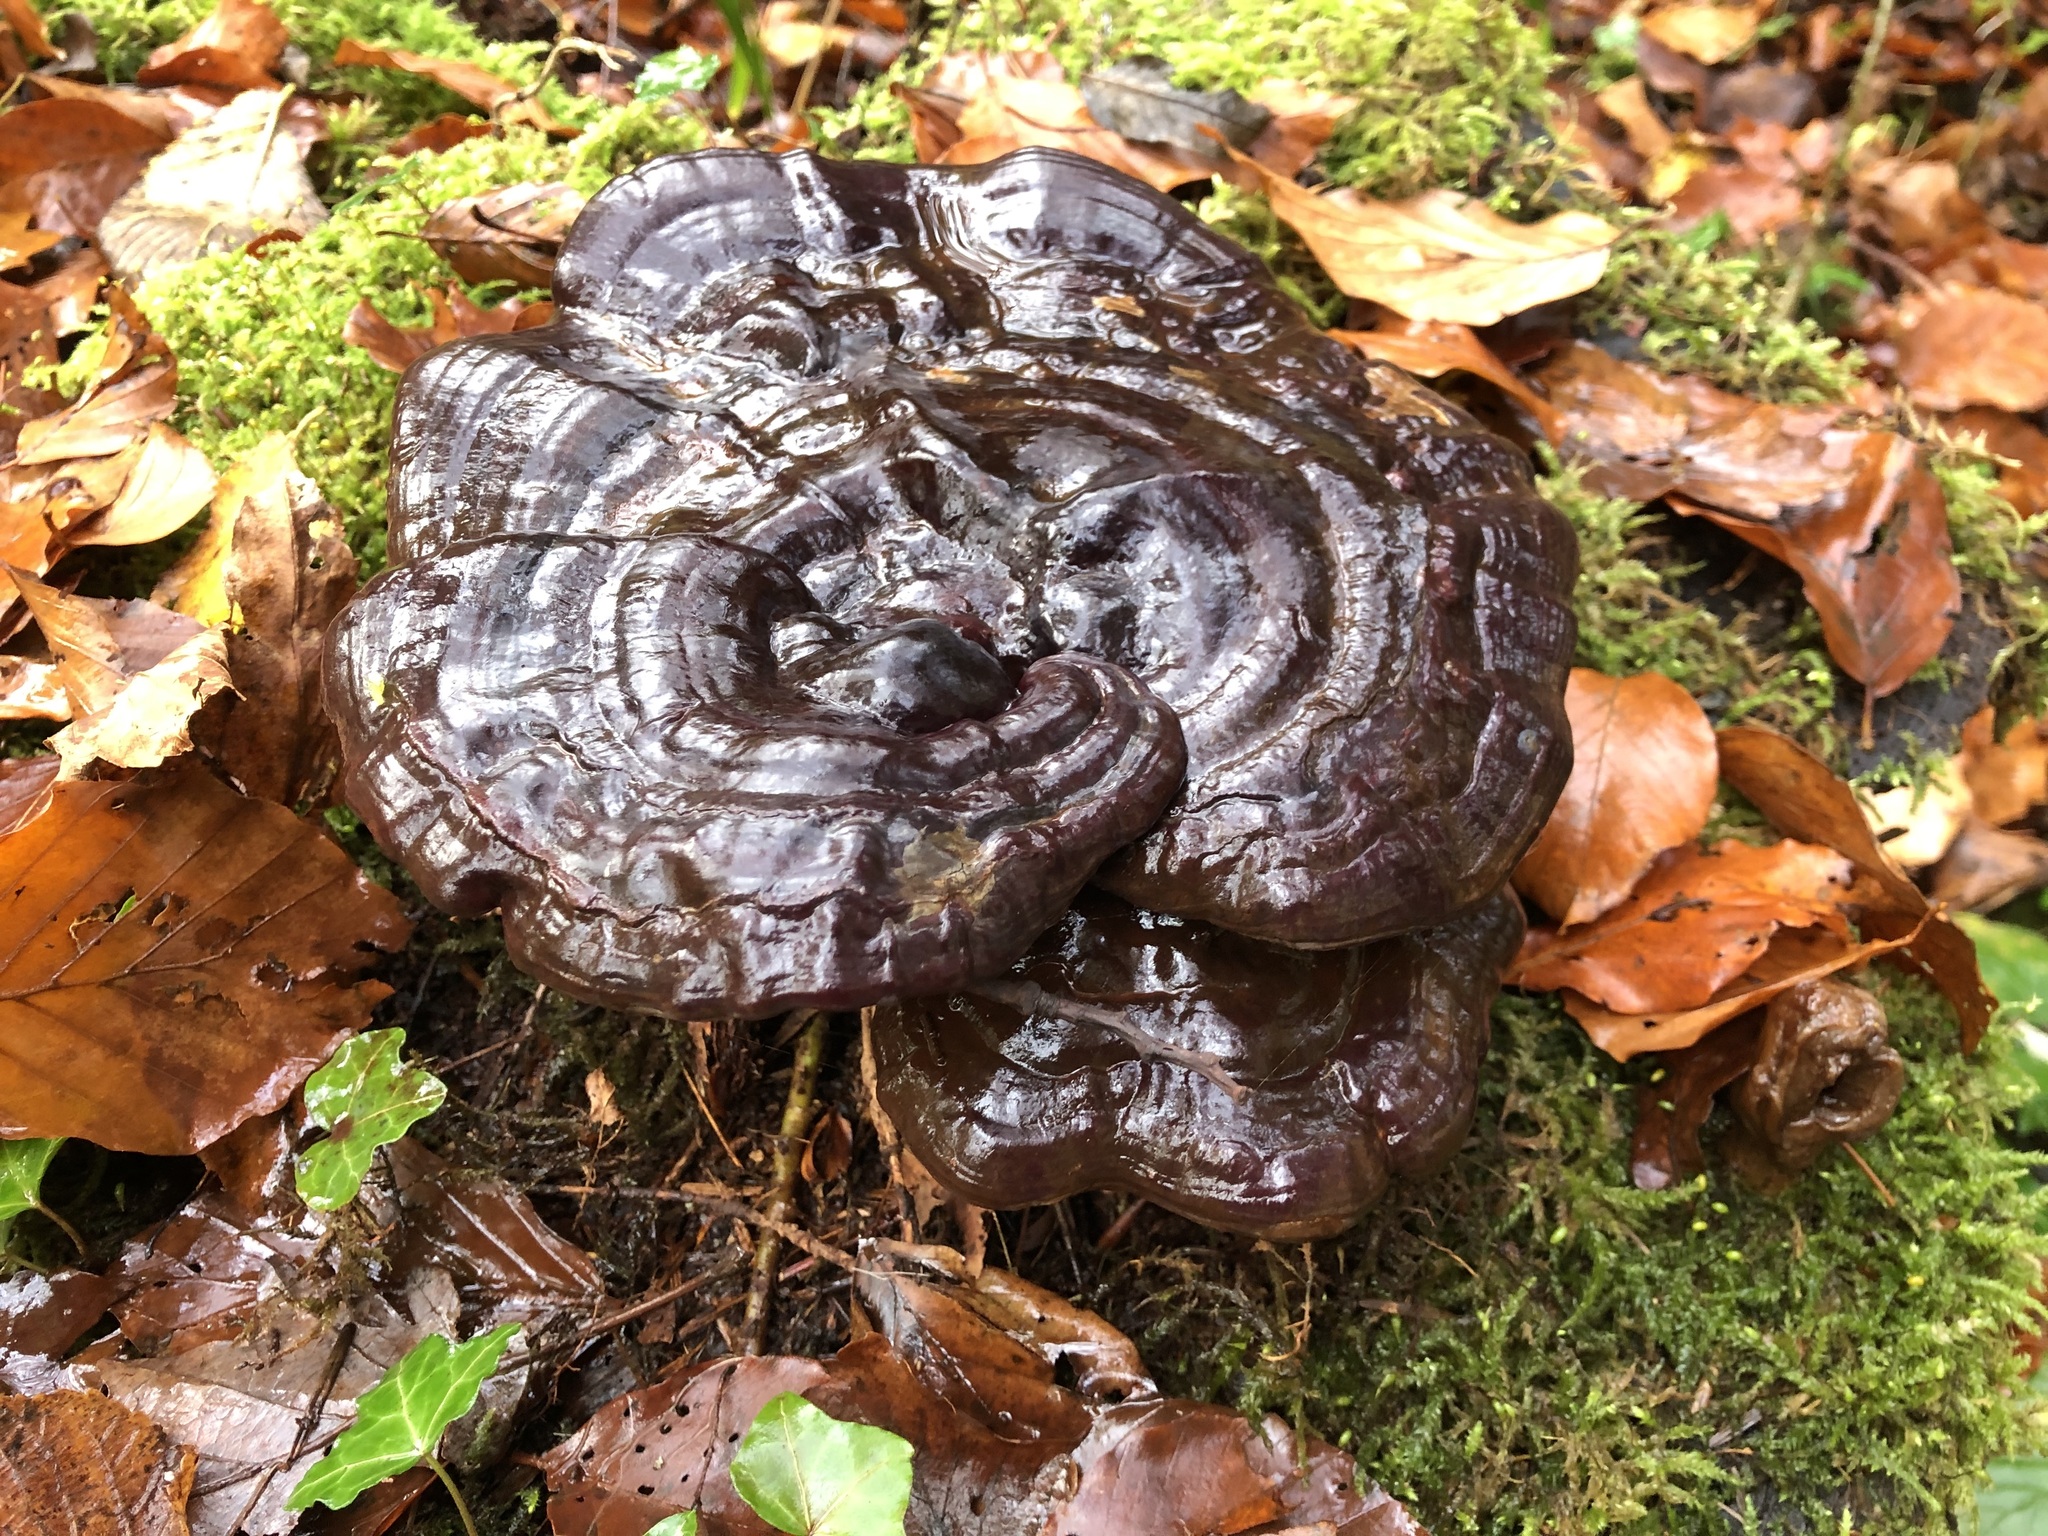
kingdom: Fungi
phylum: Basidiomycota
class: Agaricomycetes
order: Polyporales
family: Polyporaceae
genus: Ganoderma
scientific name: Ganoderma lucidum
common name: Lacquered bracket
